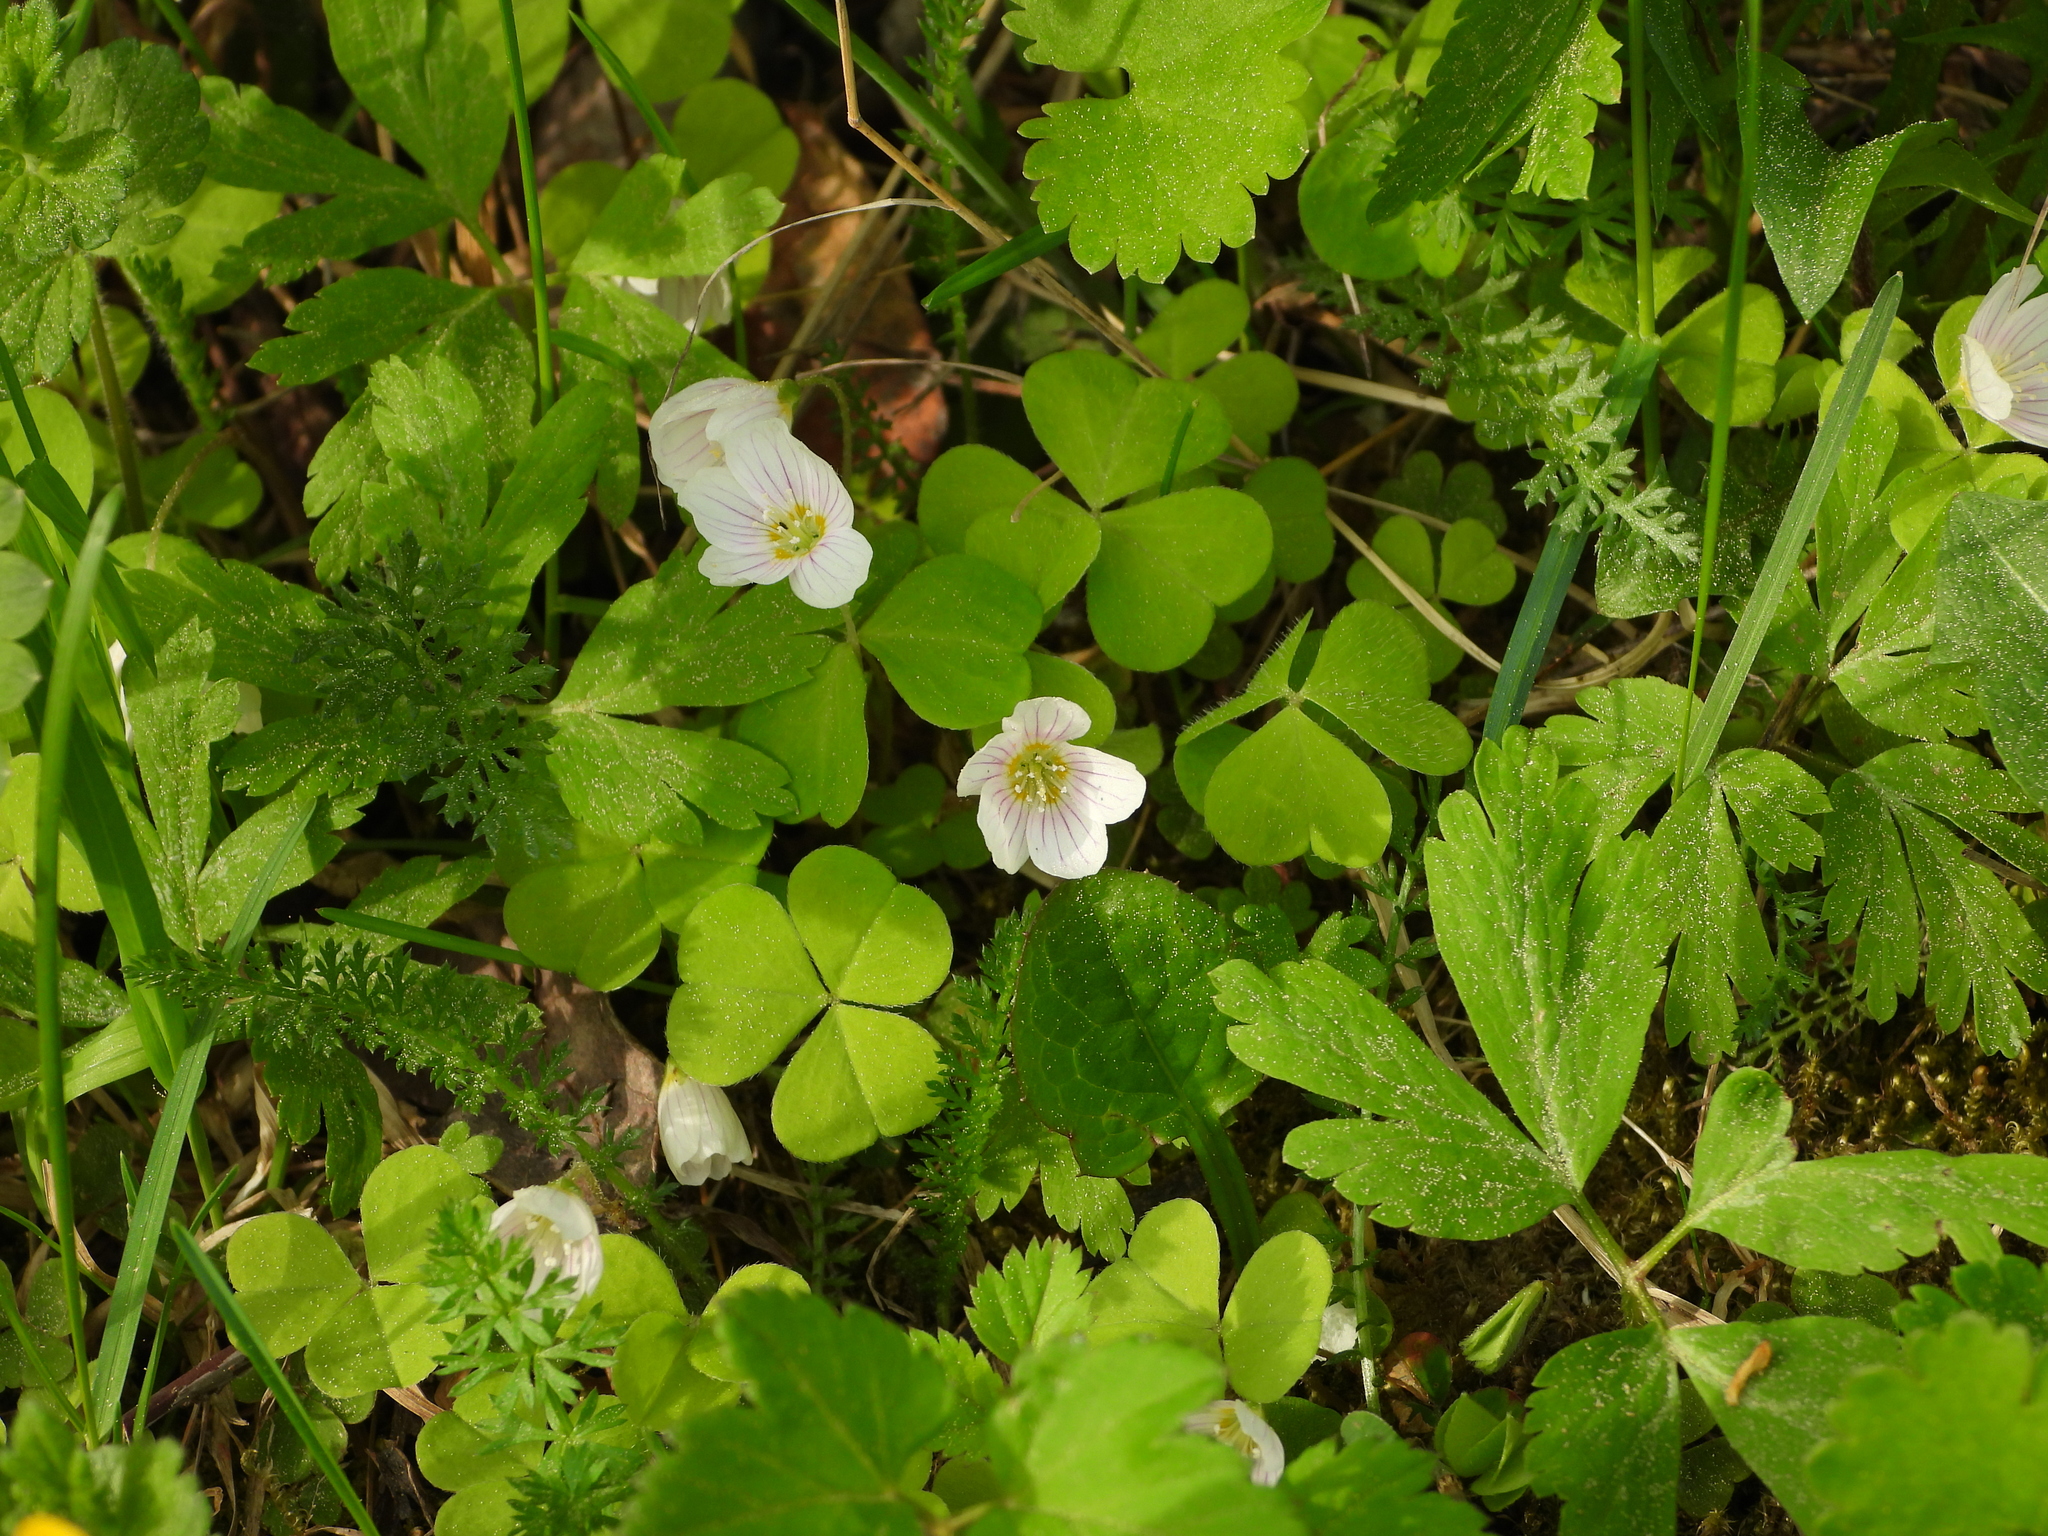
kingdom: Plantae
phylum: Tracheophyta
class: Magnoliopsida
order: Oxalidales
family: Oxalidaceae
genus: Oxalis
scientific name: Oxalis acetosella
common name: Wood-sorrel
